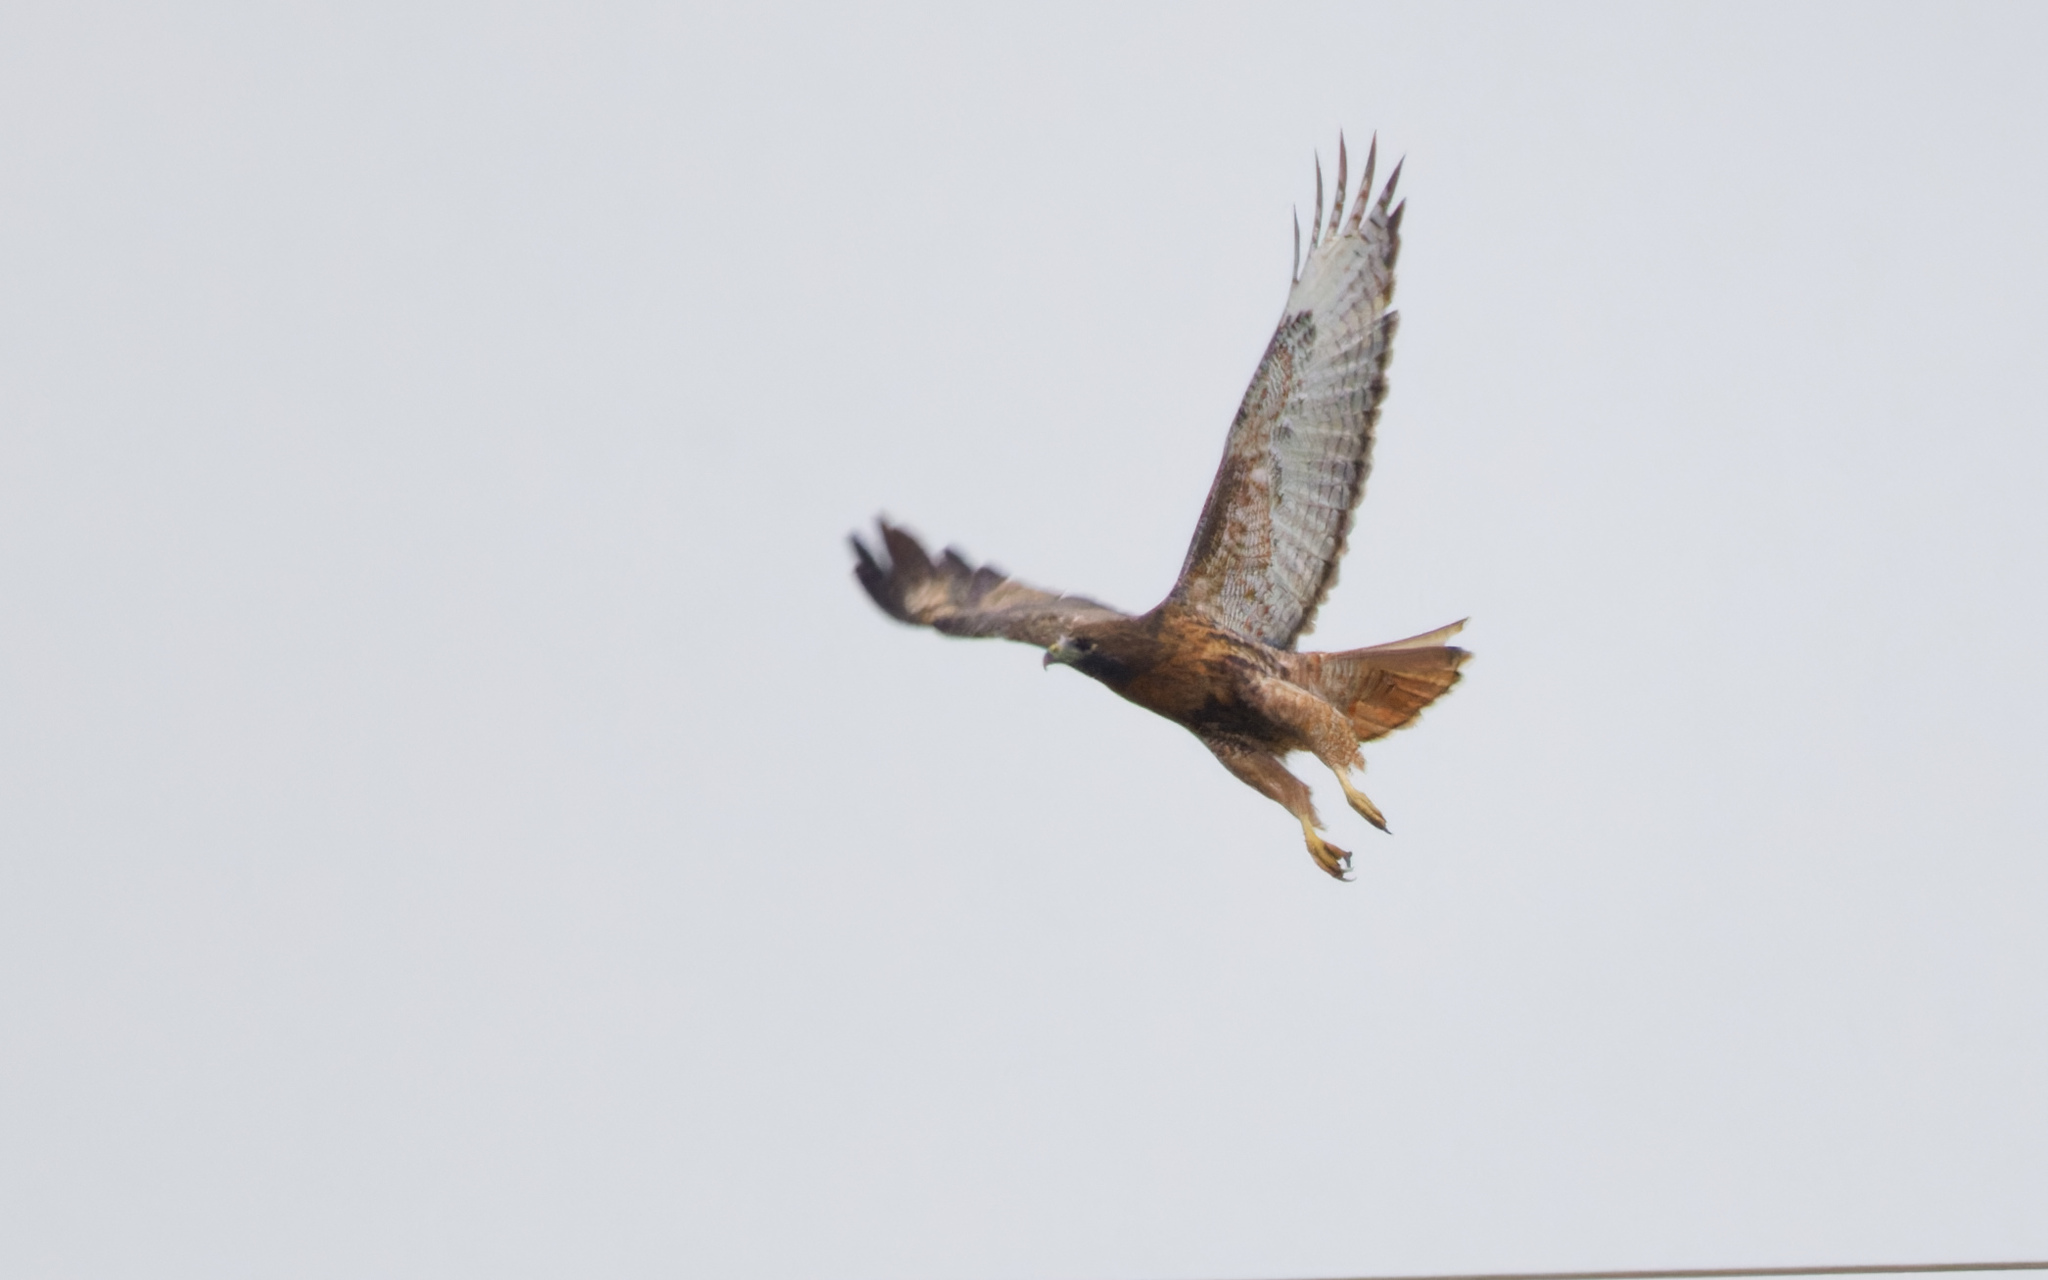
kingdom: Animalia
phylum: Chordata
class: Aves
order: Accipitriformes
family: Accipitridae
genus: Buteo
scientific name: Buteo jamaicensis
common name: Red-tailed hawk
